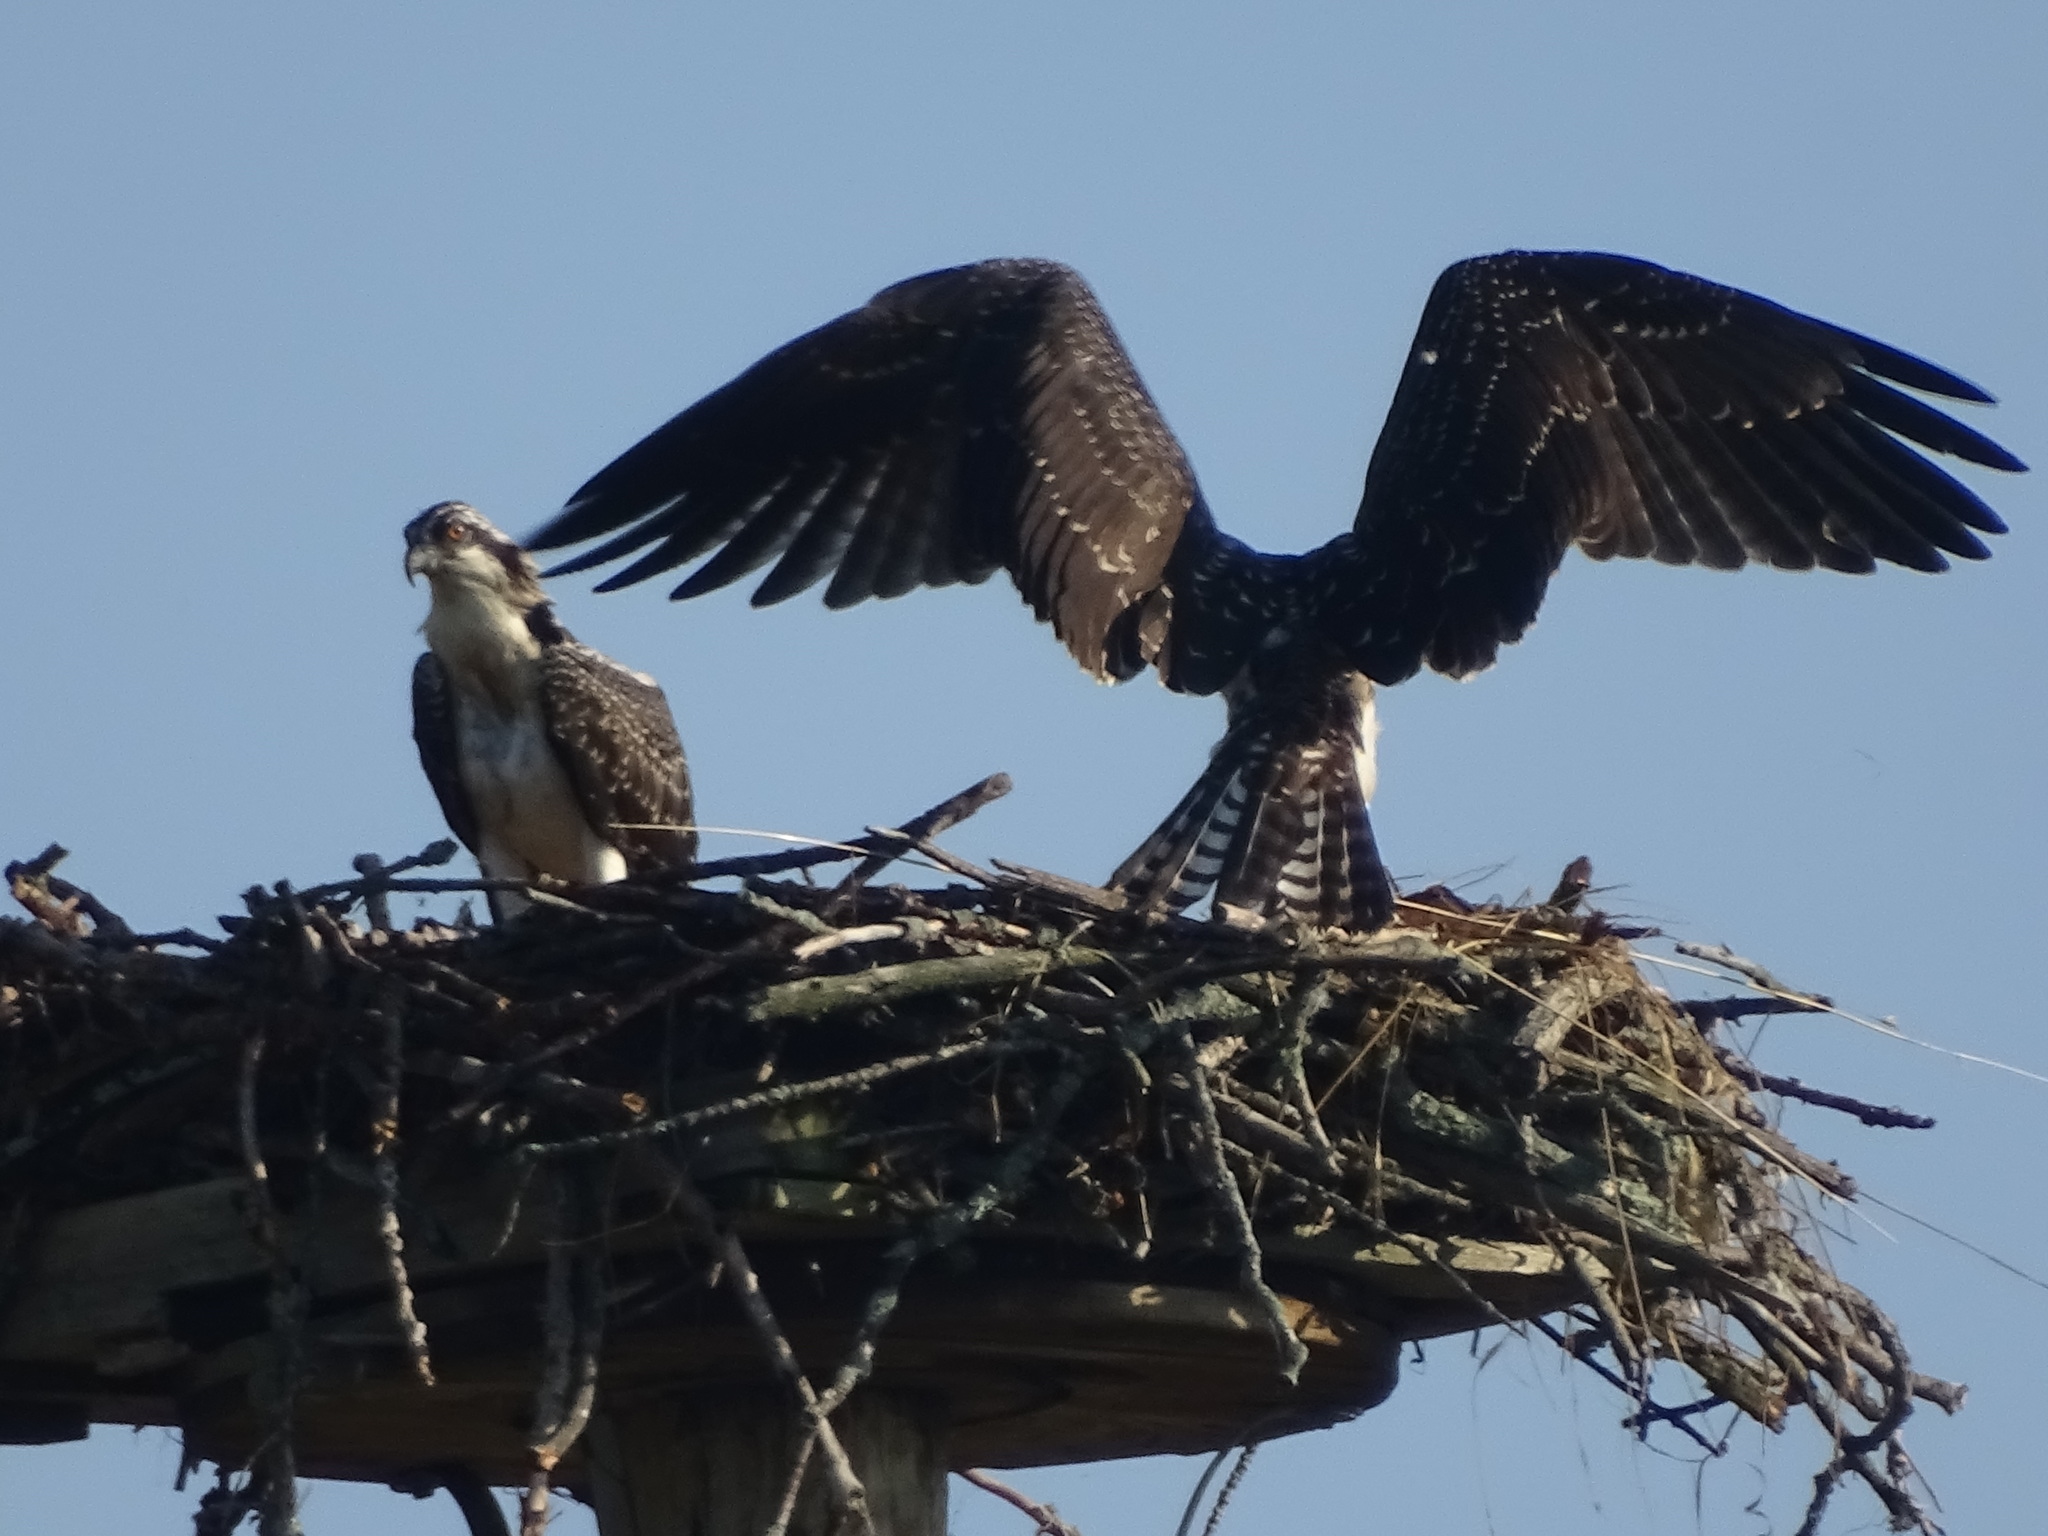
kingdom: Animalia
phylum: Chordata
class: Aves
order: Accipitriformes
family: Pandionidae
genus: Pandion
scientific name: Pandion haliaetus
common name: Osprey
